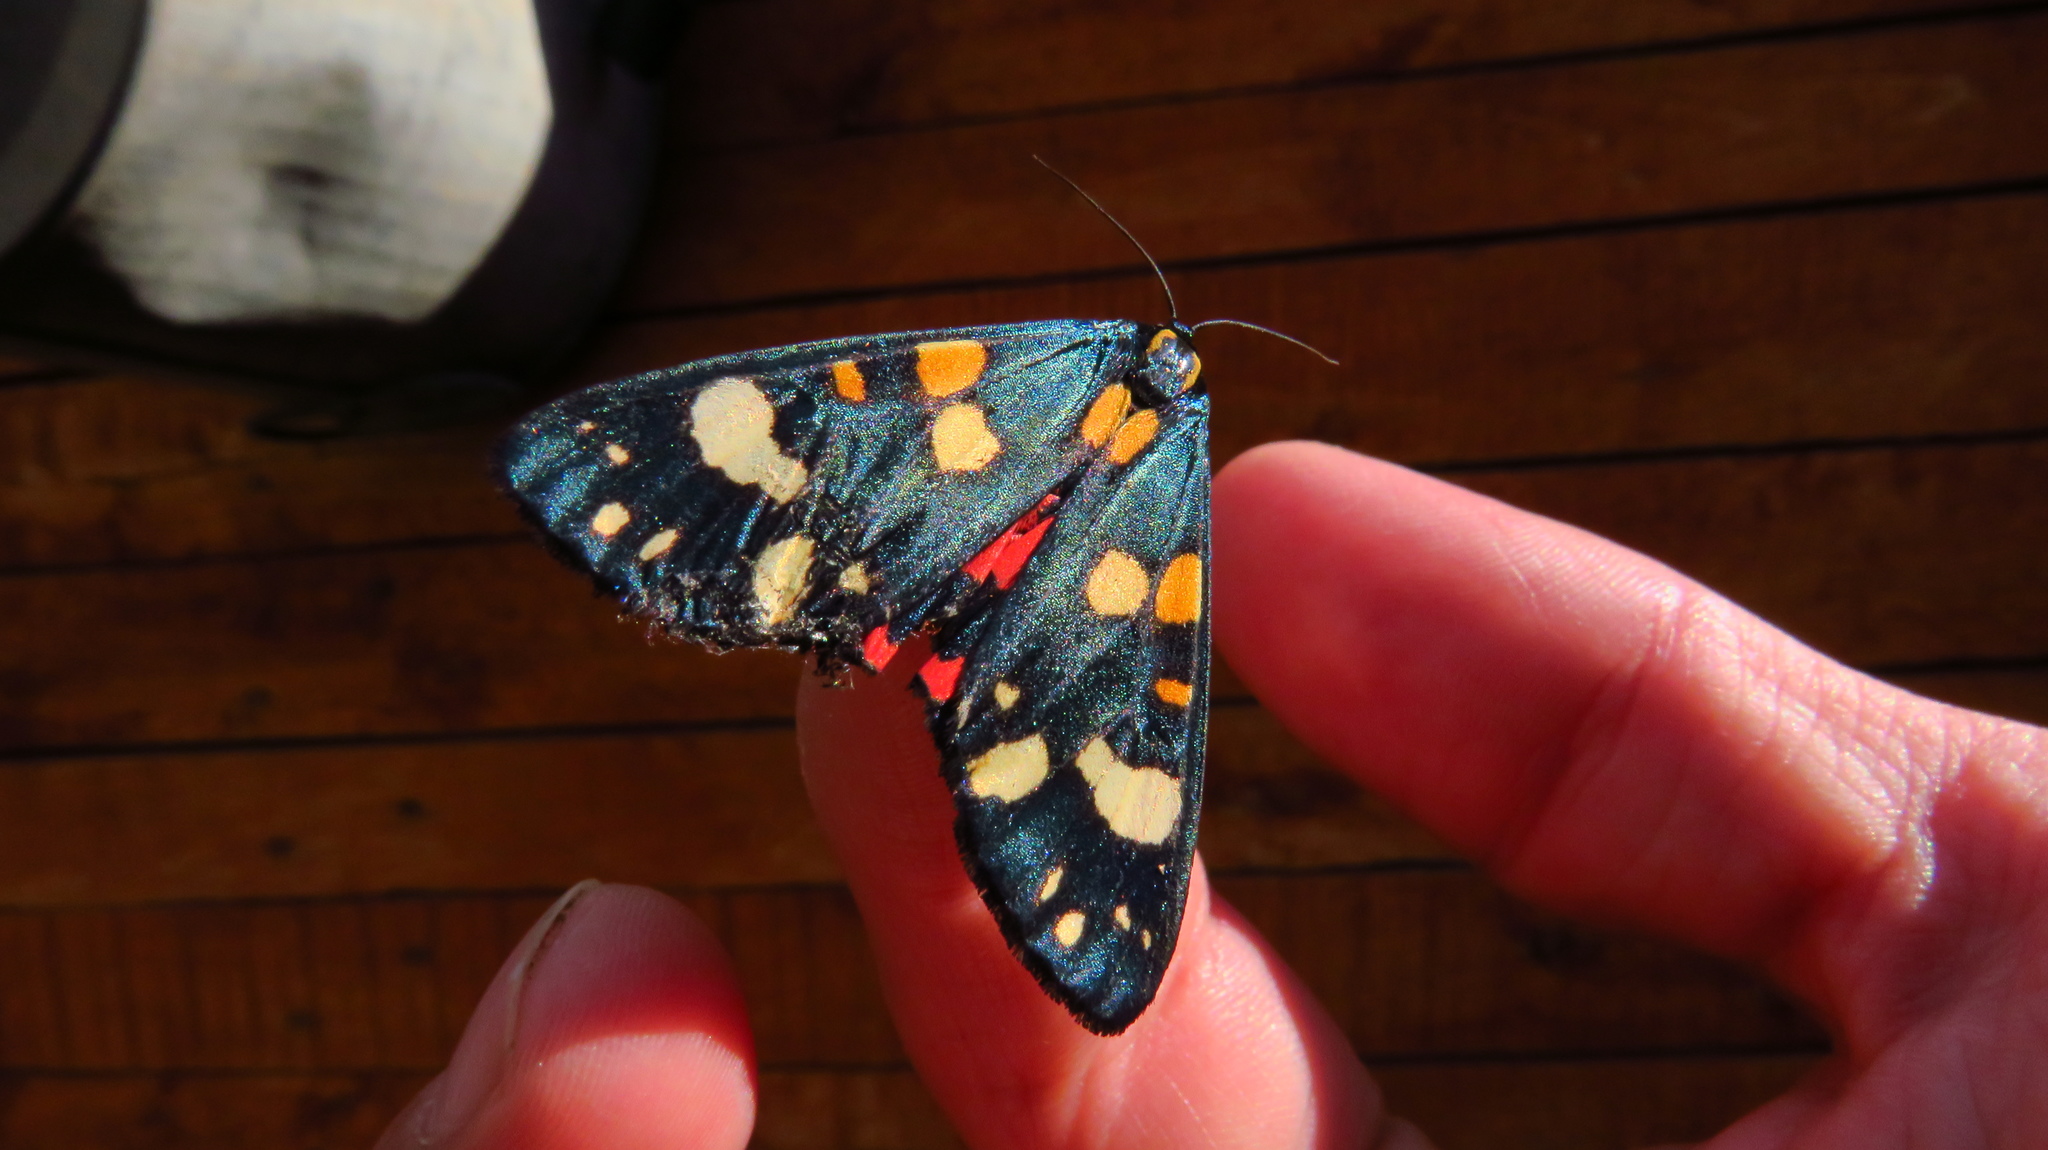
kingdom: Animalia
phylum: Arthropoda
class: Insecta
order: Lepidoptera
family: Erebidae
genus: Callimorpha
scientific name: Callimorpha dominula
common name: Scarlet tiger
